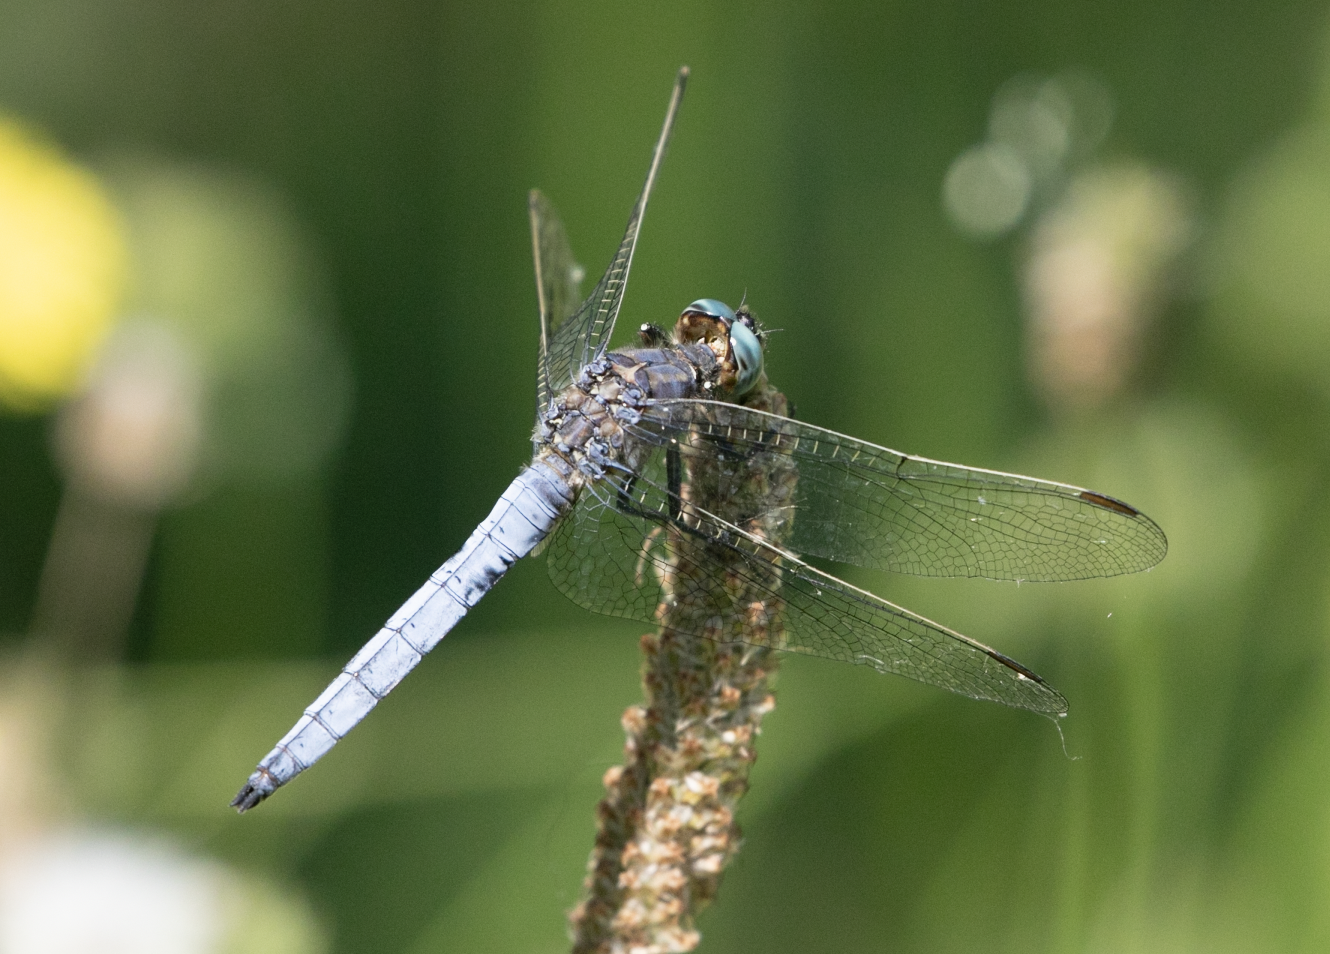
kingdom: Animalia
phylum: Arthropoda
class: Insecta
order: Odonata
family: Libellulidae
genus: Orthetrum
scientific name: Orthetrum coerulescens
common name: Keeled skimmer
